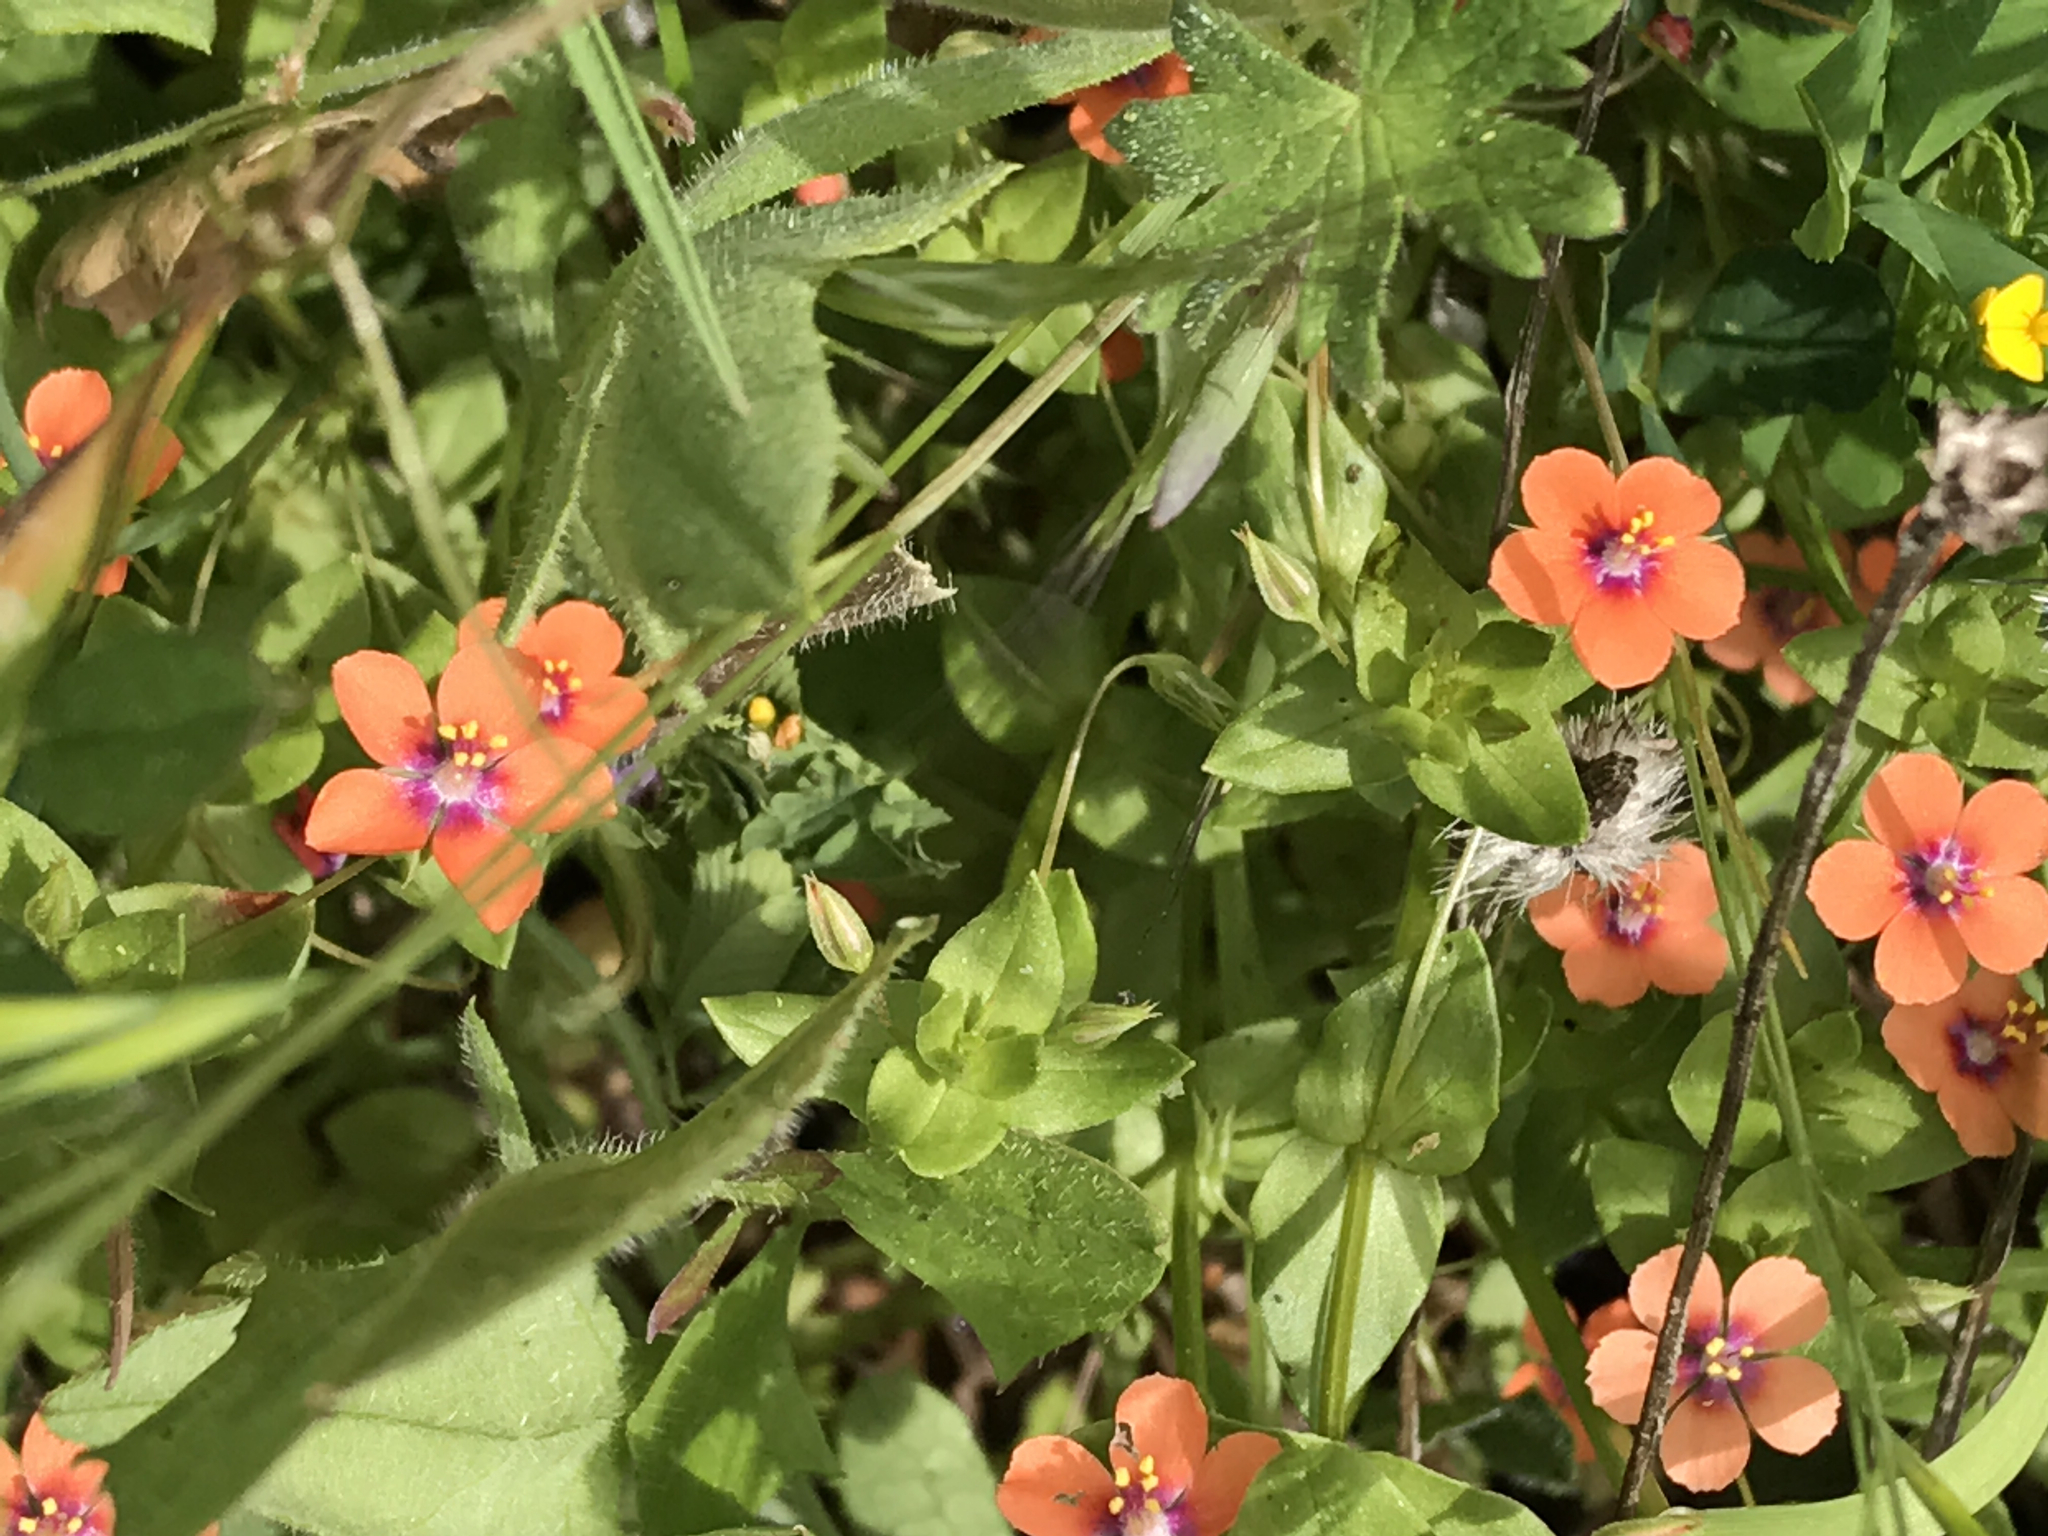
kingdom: Plantae
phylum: Tracheophyta
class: Magnoliopsida
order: Ericales
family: Primulaceae
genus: Lysimachia
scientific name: Lysimachia arvensis
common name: Scarlet pimpernel
